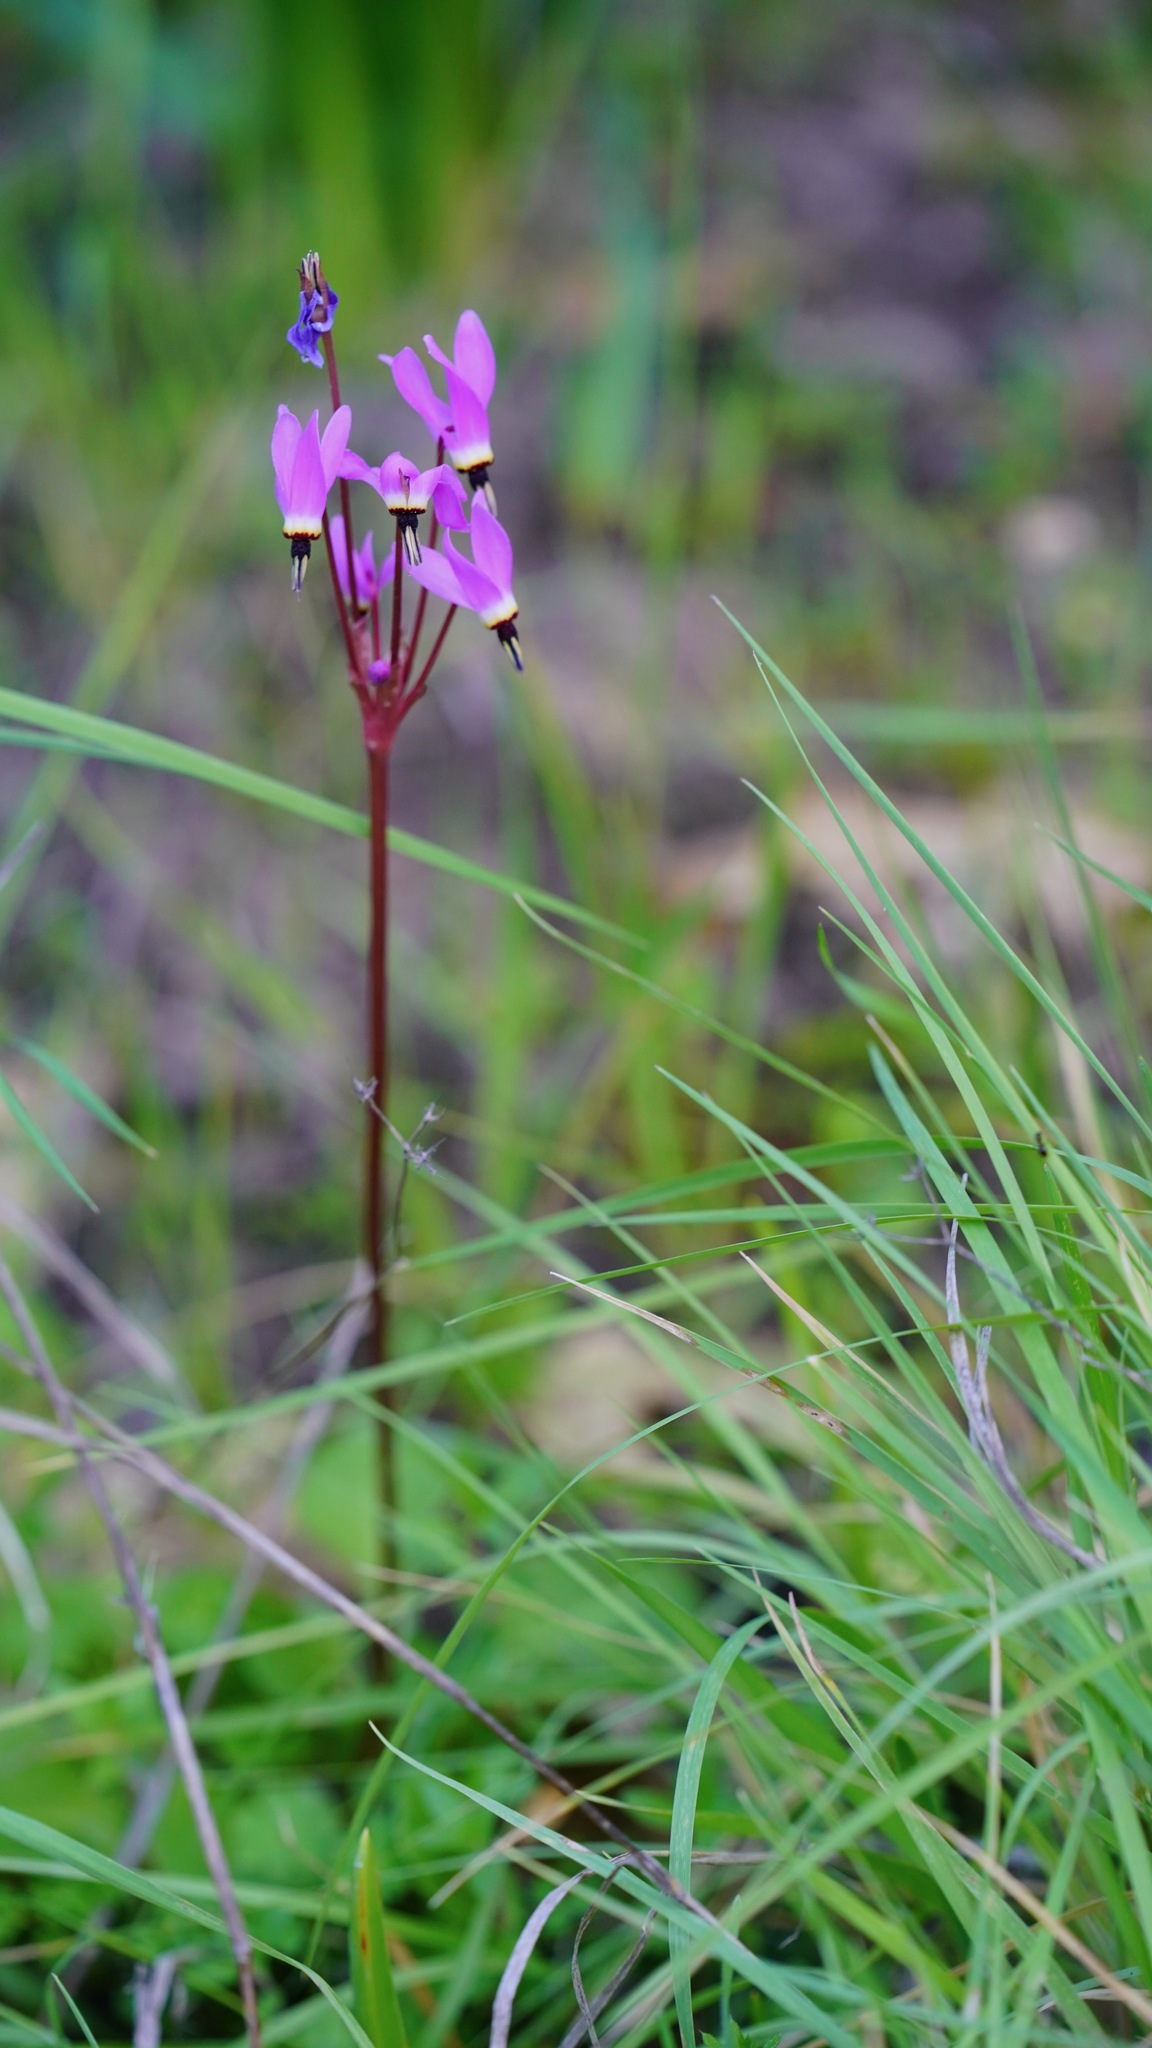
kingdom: Plantae
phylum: Tracheophyta
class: Magnoliopsida
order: Ericales
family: Primulaceae
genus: Dodecatheon
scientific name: Dodecatheon hendersonii
